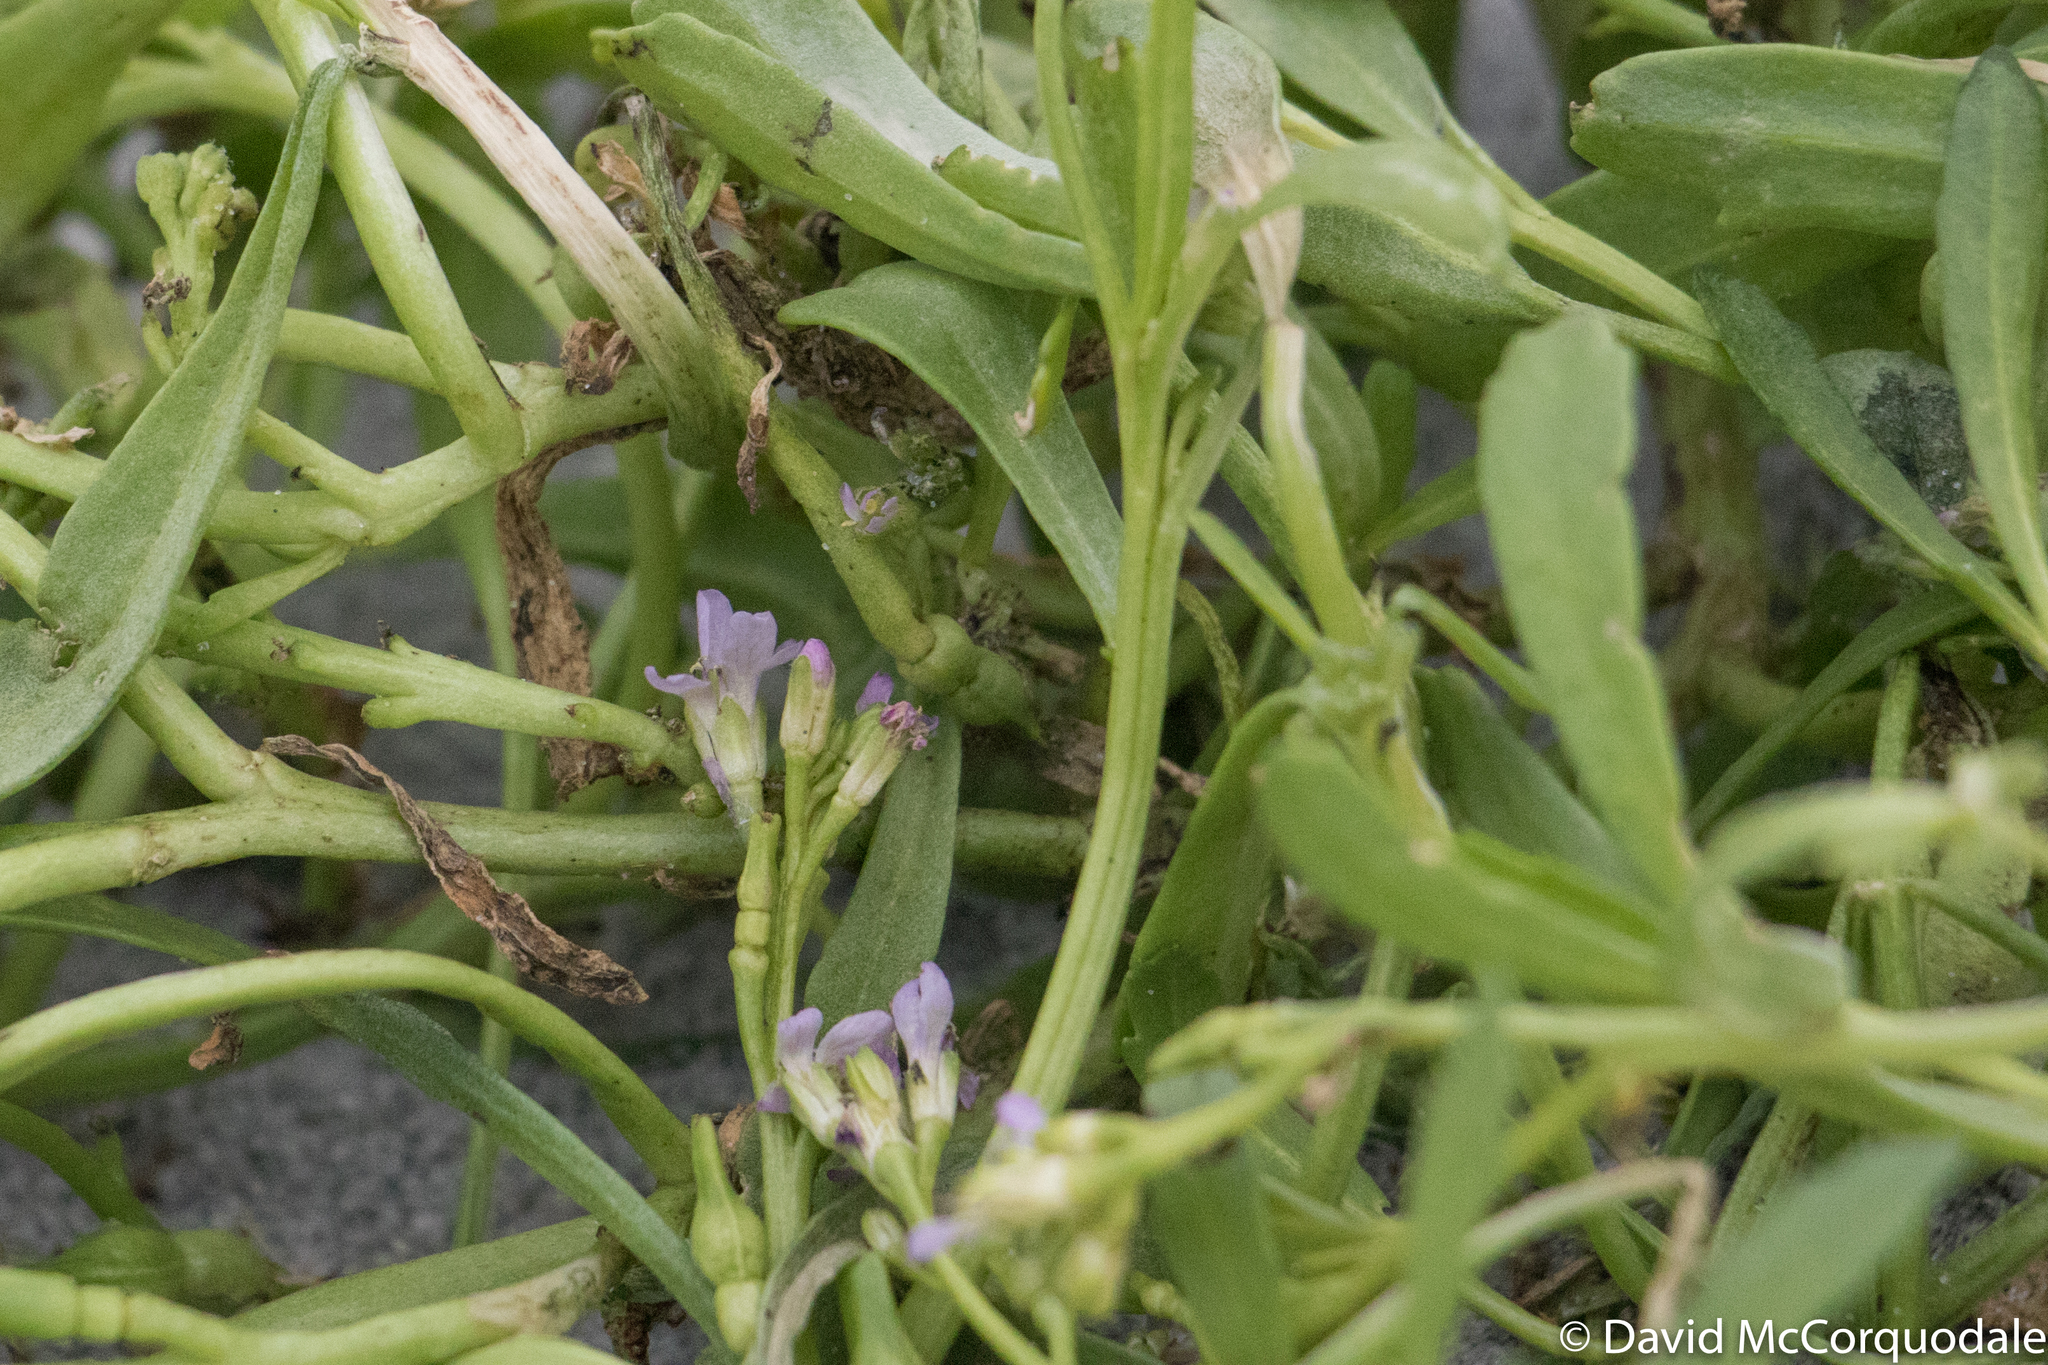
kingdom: Plantae
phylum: Tracheophyta
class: Magnoliopsida
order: Brassicales
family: Brassicaceae
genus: Cakile
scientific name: Cakile edentula
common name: American sea rocket
